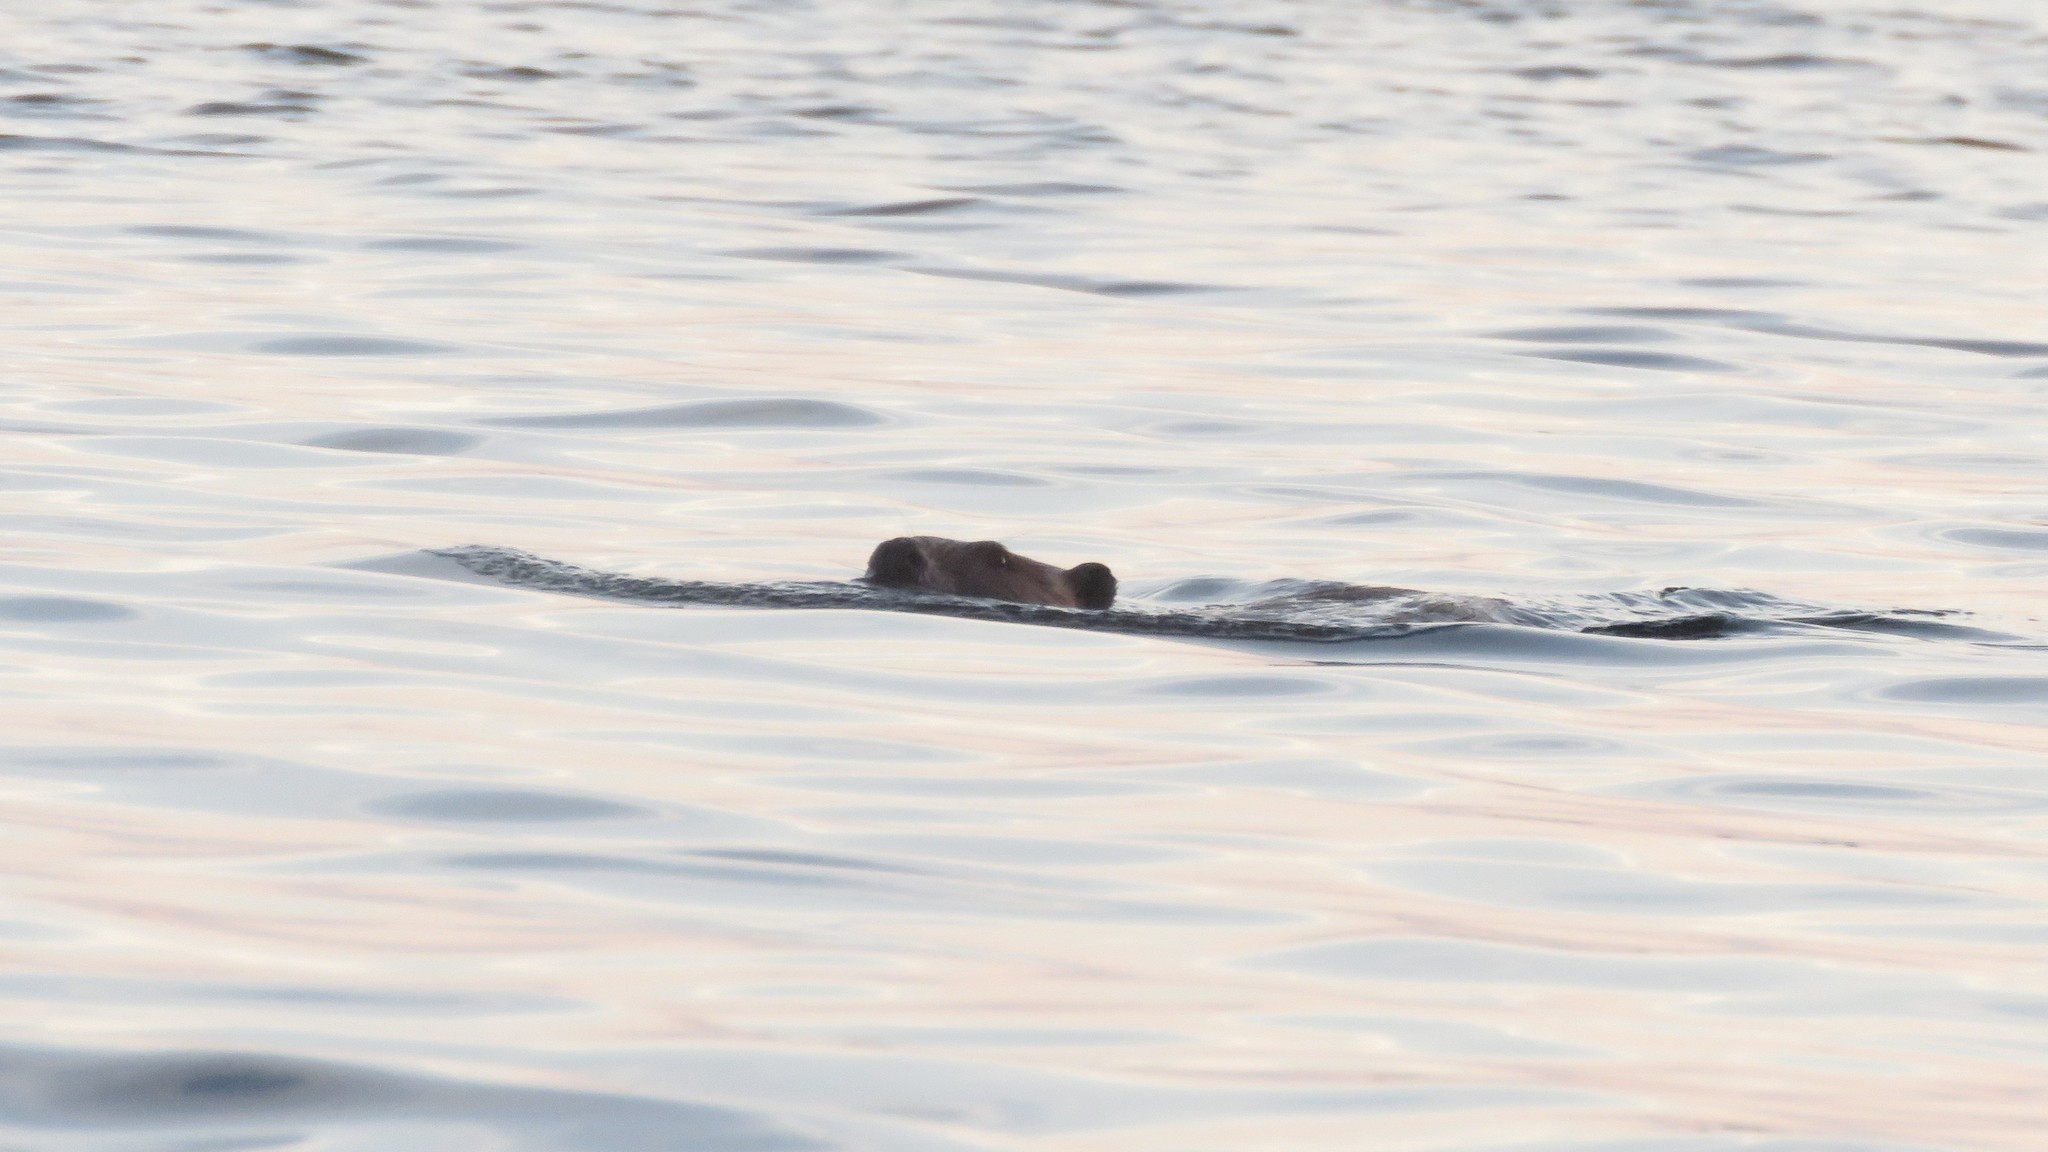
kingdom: Animalia
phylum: Chordata
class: Mammalia
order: Rodentia
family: Castoridae
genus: Castor
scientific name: Castor canadensis
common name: American beaver
